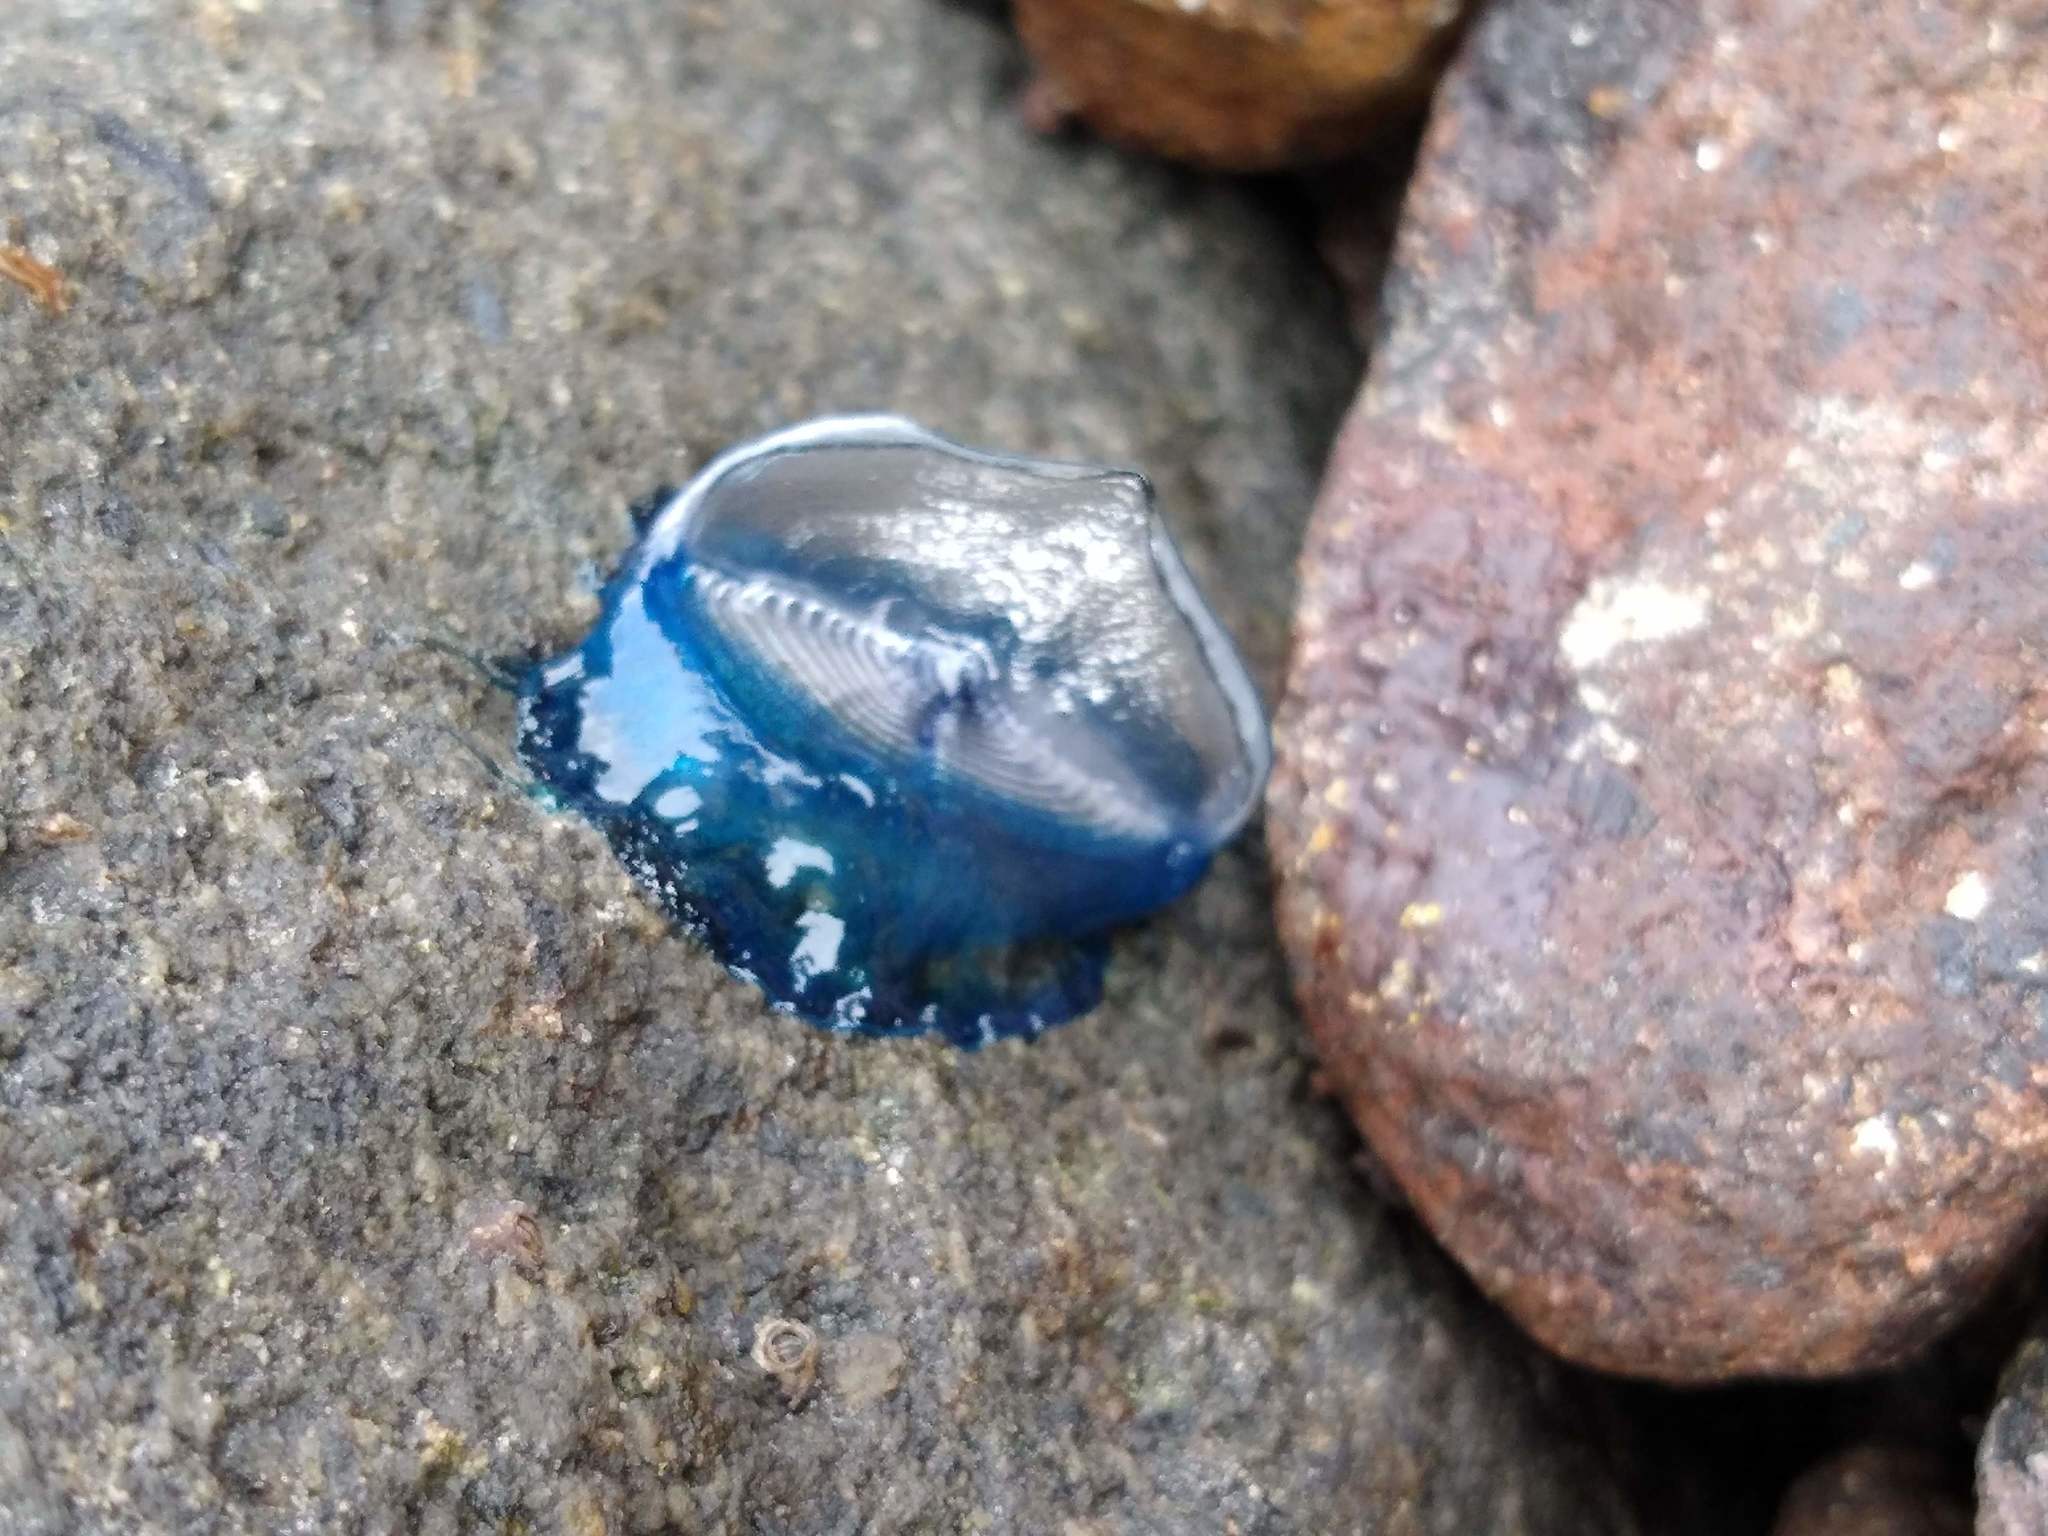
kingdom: Animalia
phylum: Cnidaria
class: Hydrozoa
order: Anthoathecata
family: Porpitidae
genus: Velella
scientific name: Velella velella
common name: By-the-wind-sailor
